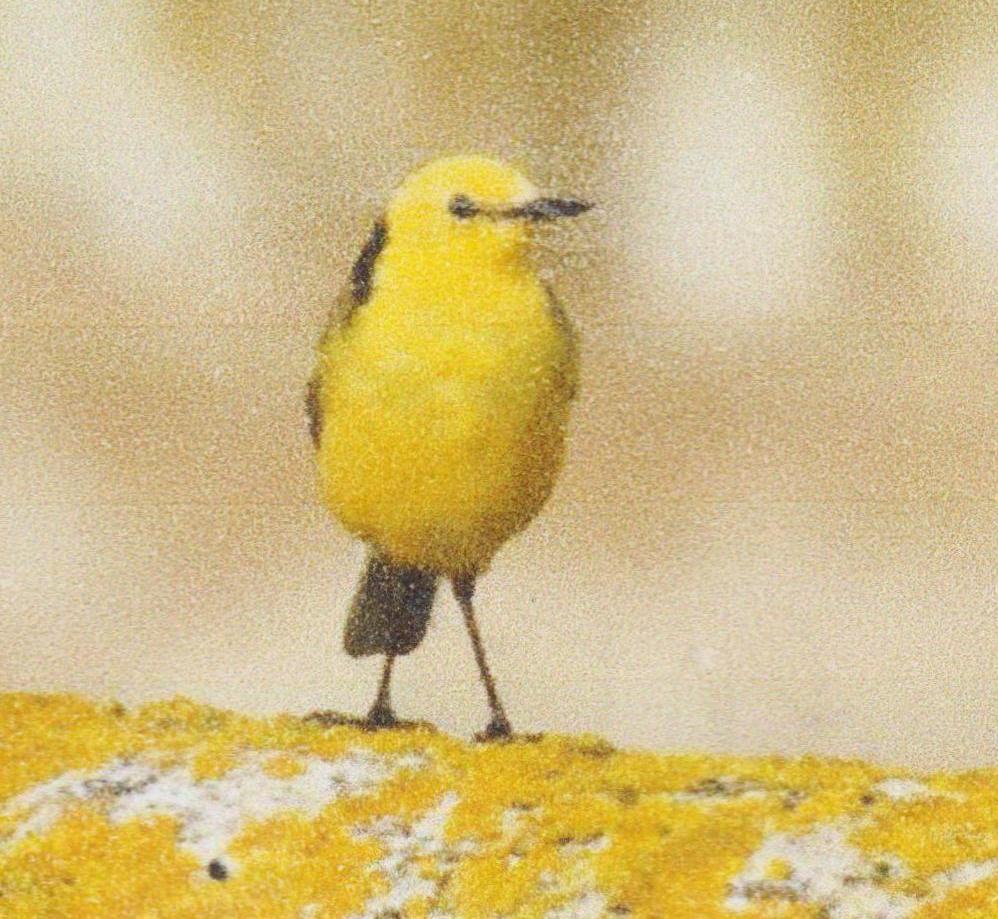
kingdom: Animalia
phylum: Chordata
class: Aves
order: Passeriformes
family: Motacillidae
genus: Motacilla
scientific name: Motacilla citreola
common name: Citrine wagtail
